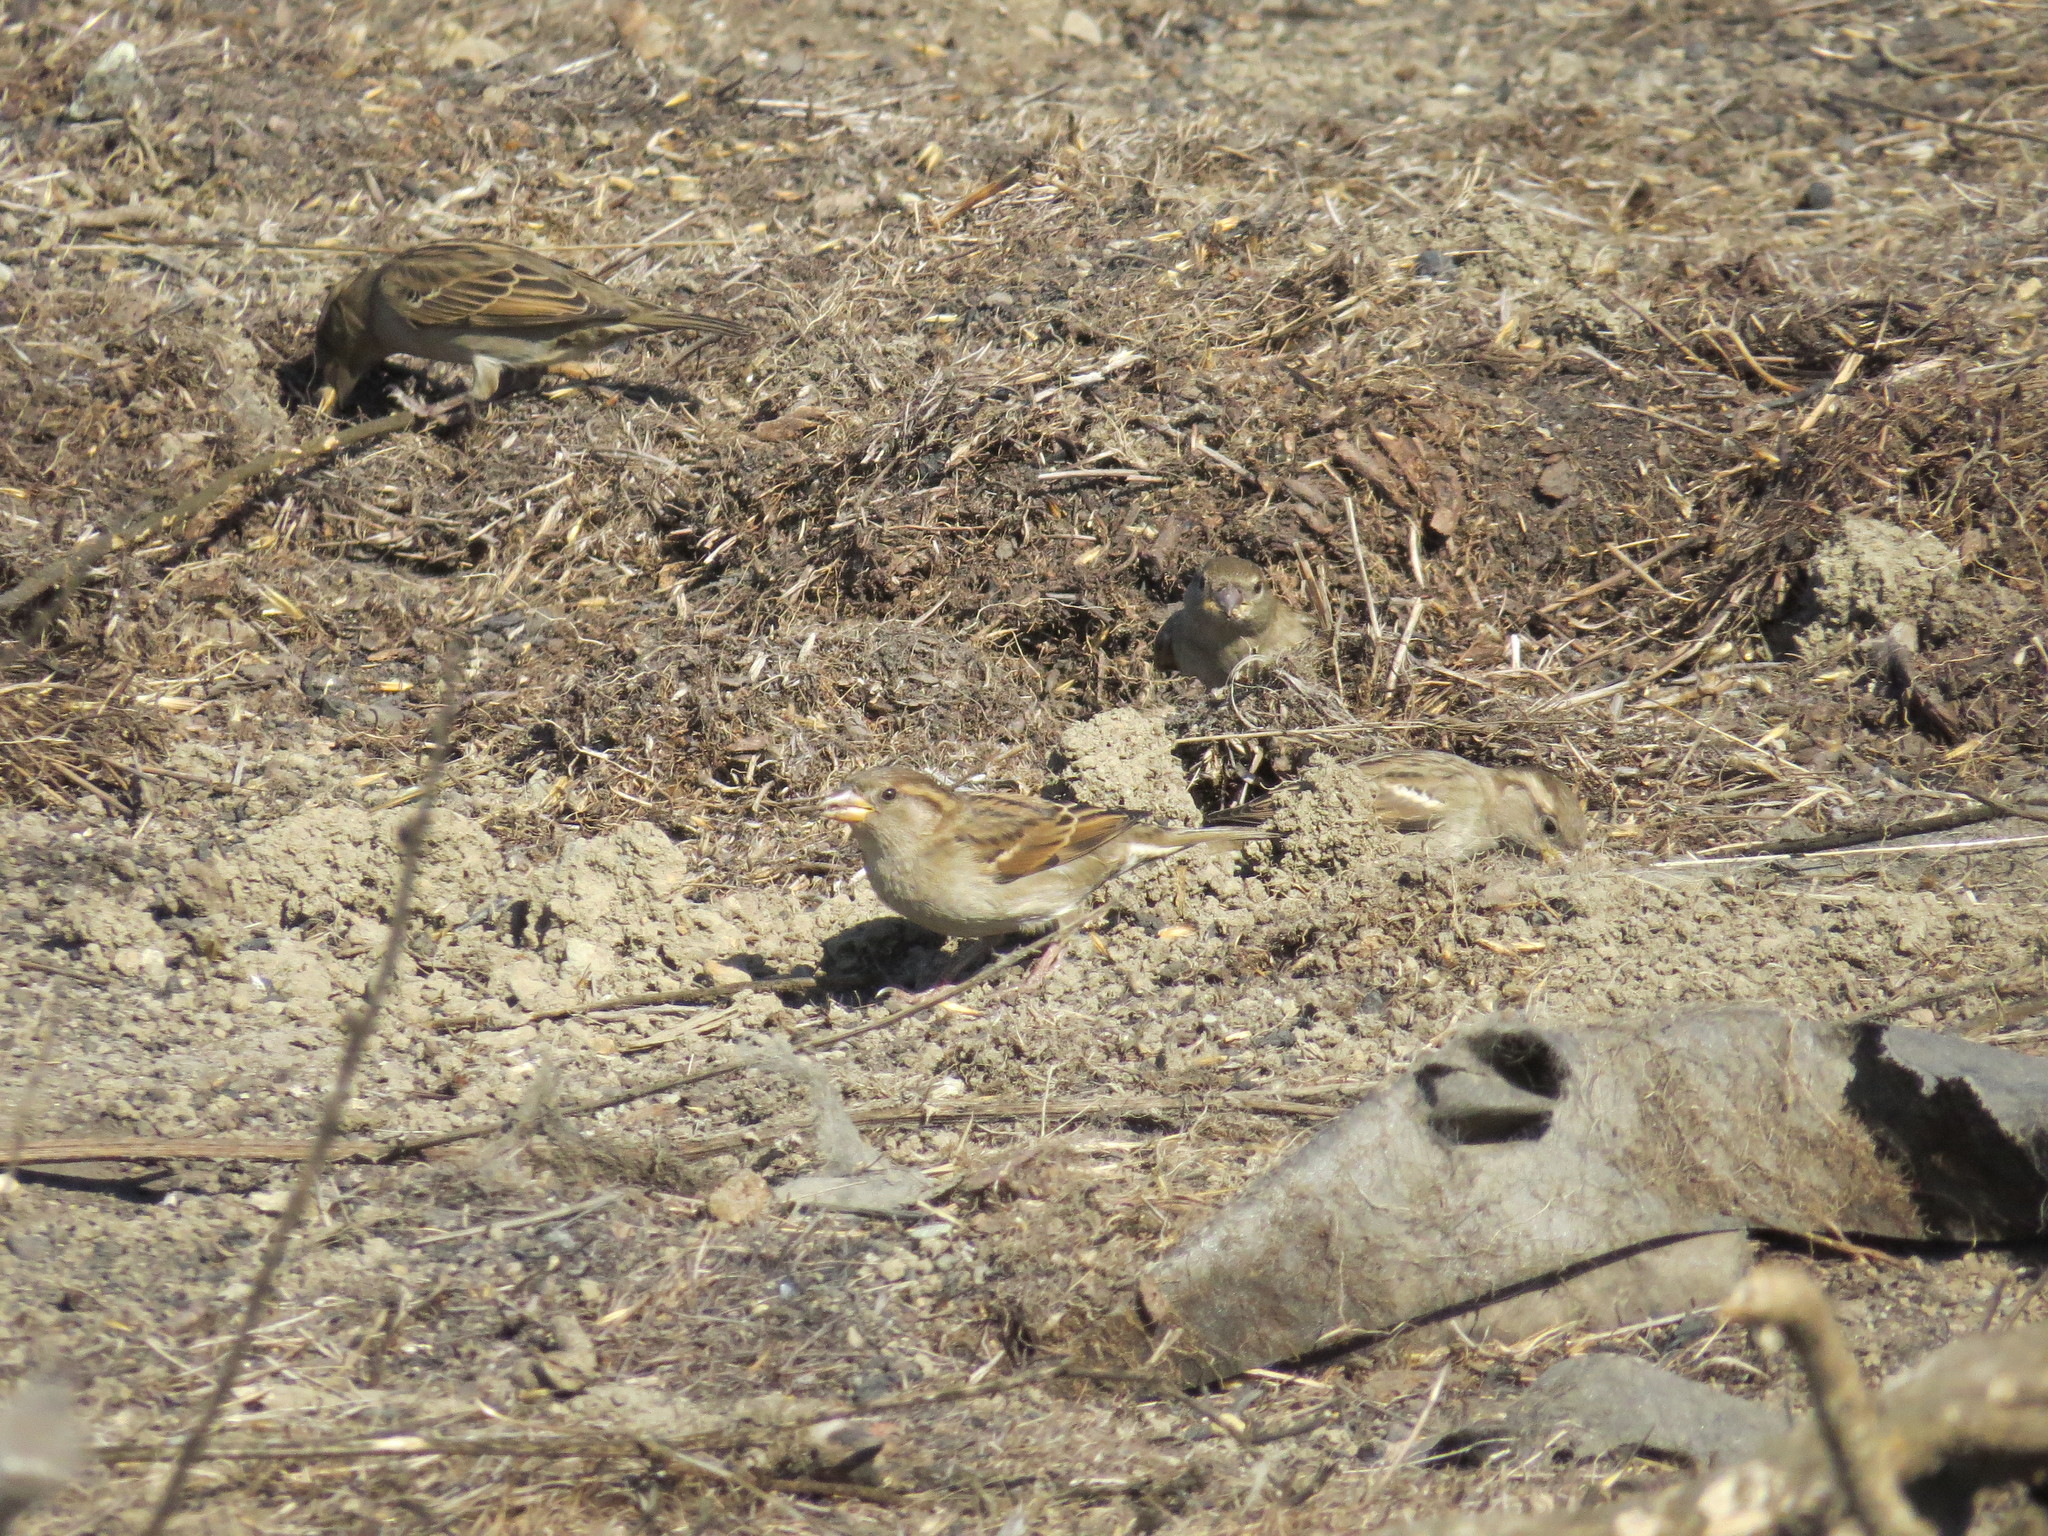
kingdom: Animalia
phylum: Chordata
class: Aves
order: Passeriformes
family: Passeridae
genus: Passer
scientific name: Passer domesticus
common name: House sparrow
